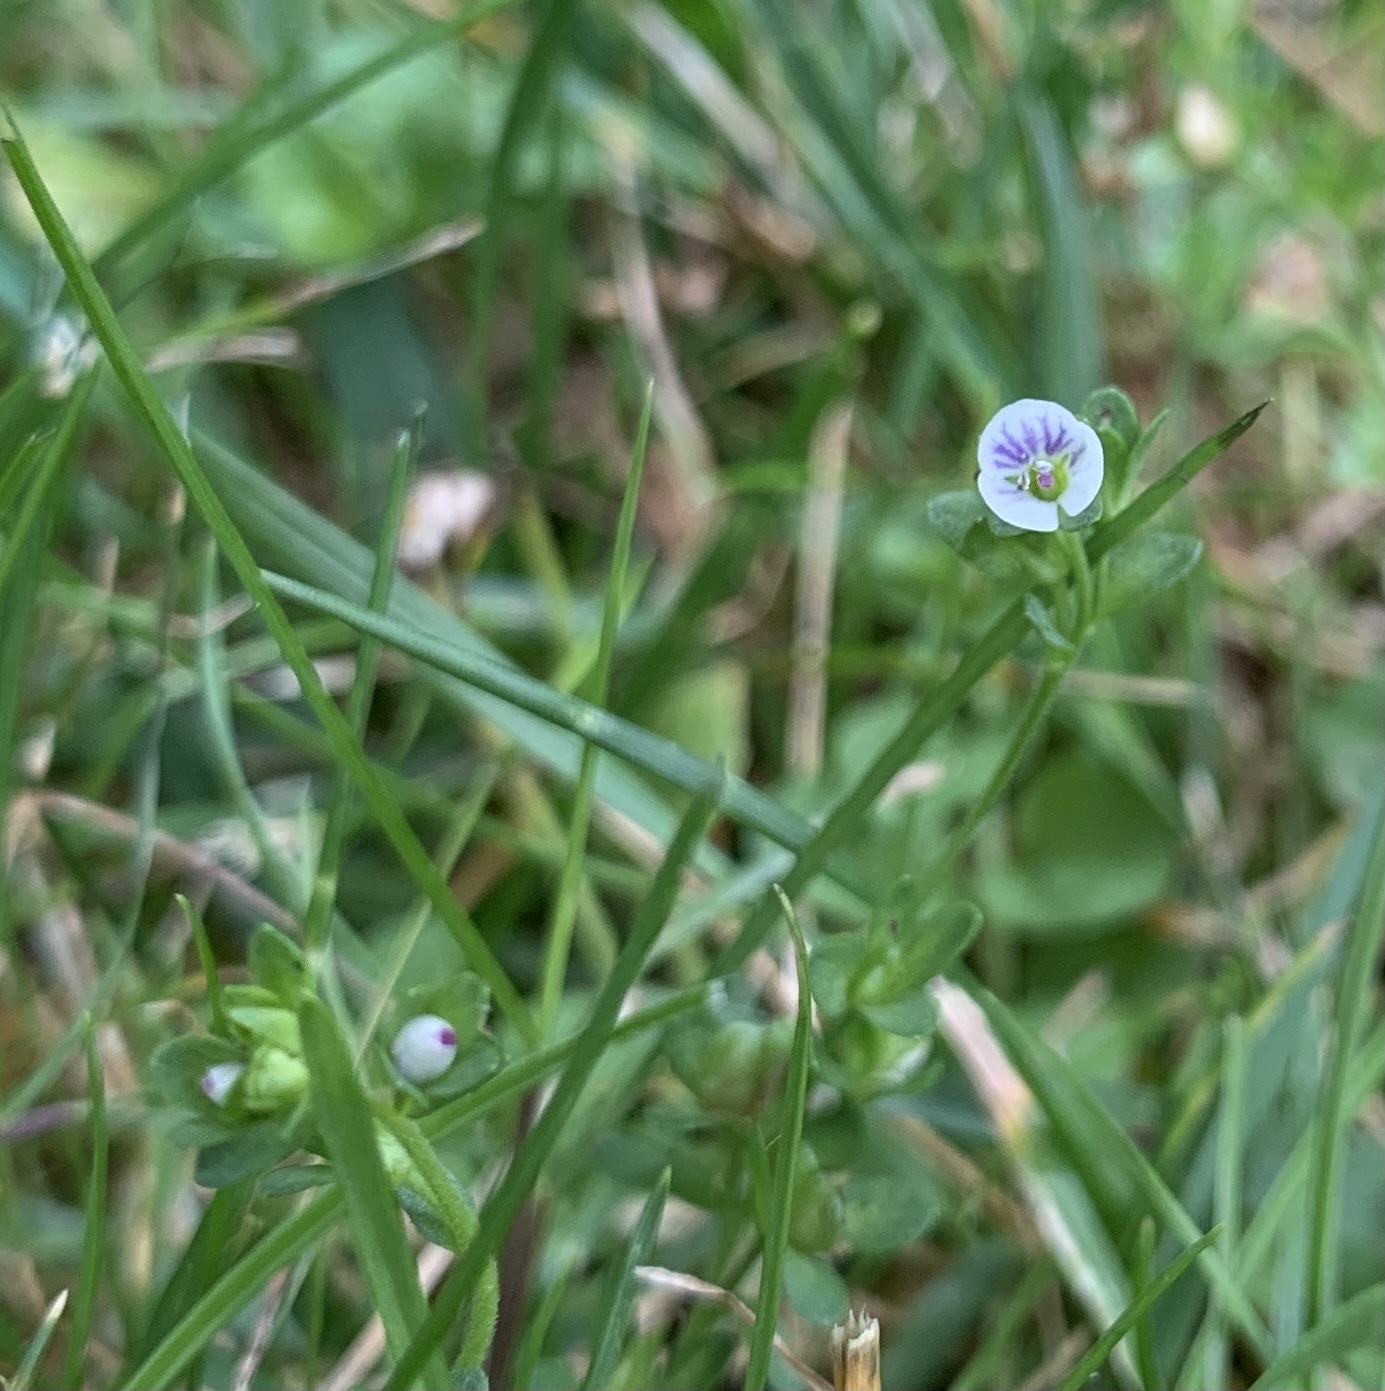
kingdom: Plantae
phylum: Tracheophyta
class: Magnoliopsida
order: Lamiales
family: Plantaginaceae
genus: Veronica
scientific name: Veronica serpyllifolia
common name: Thyme-leaved speedwell
